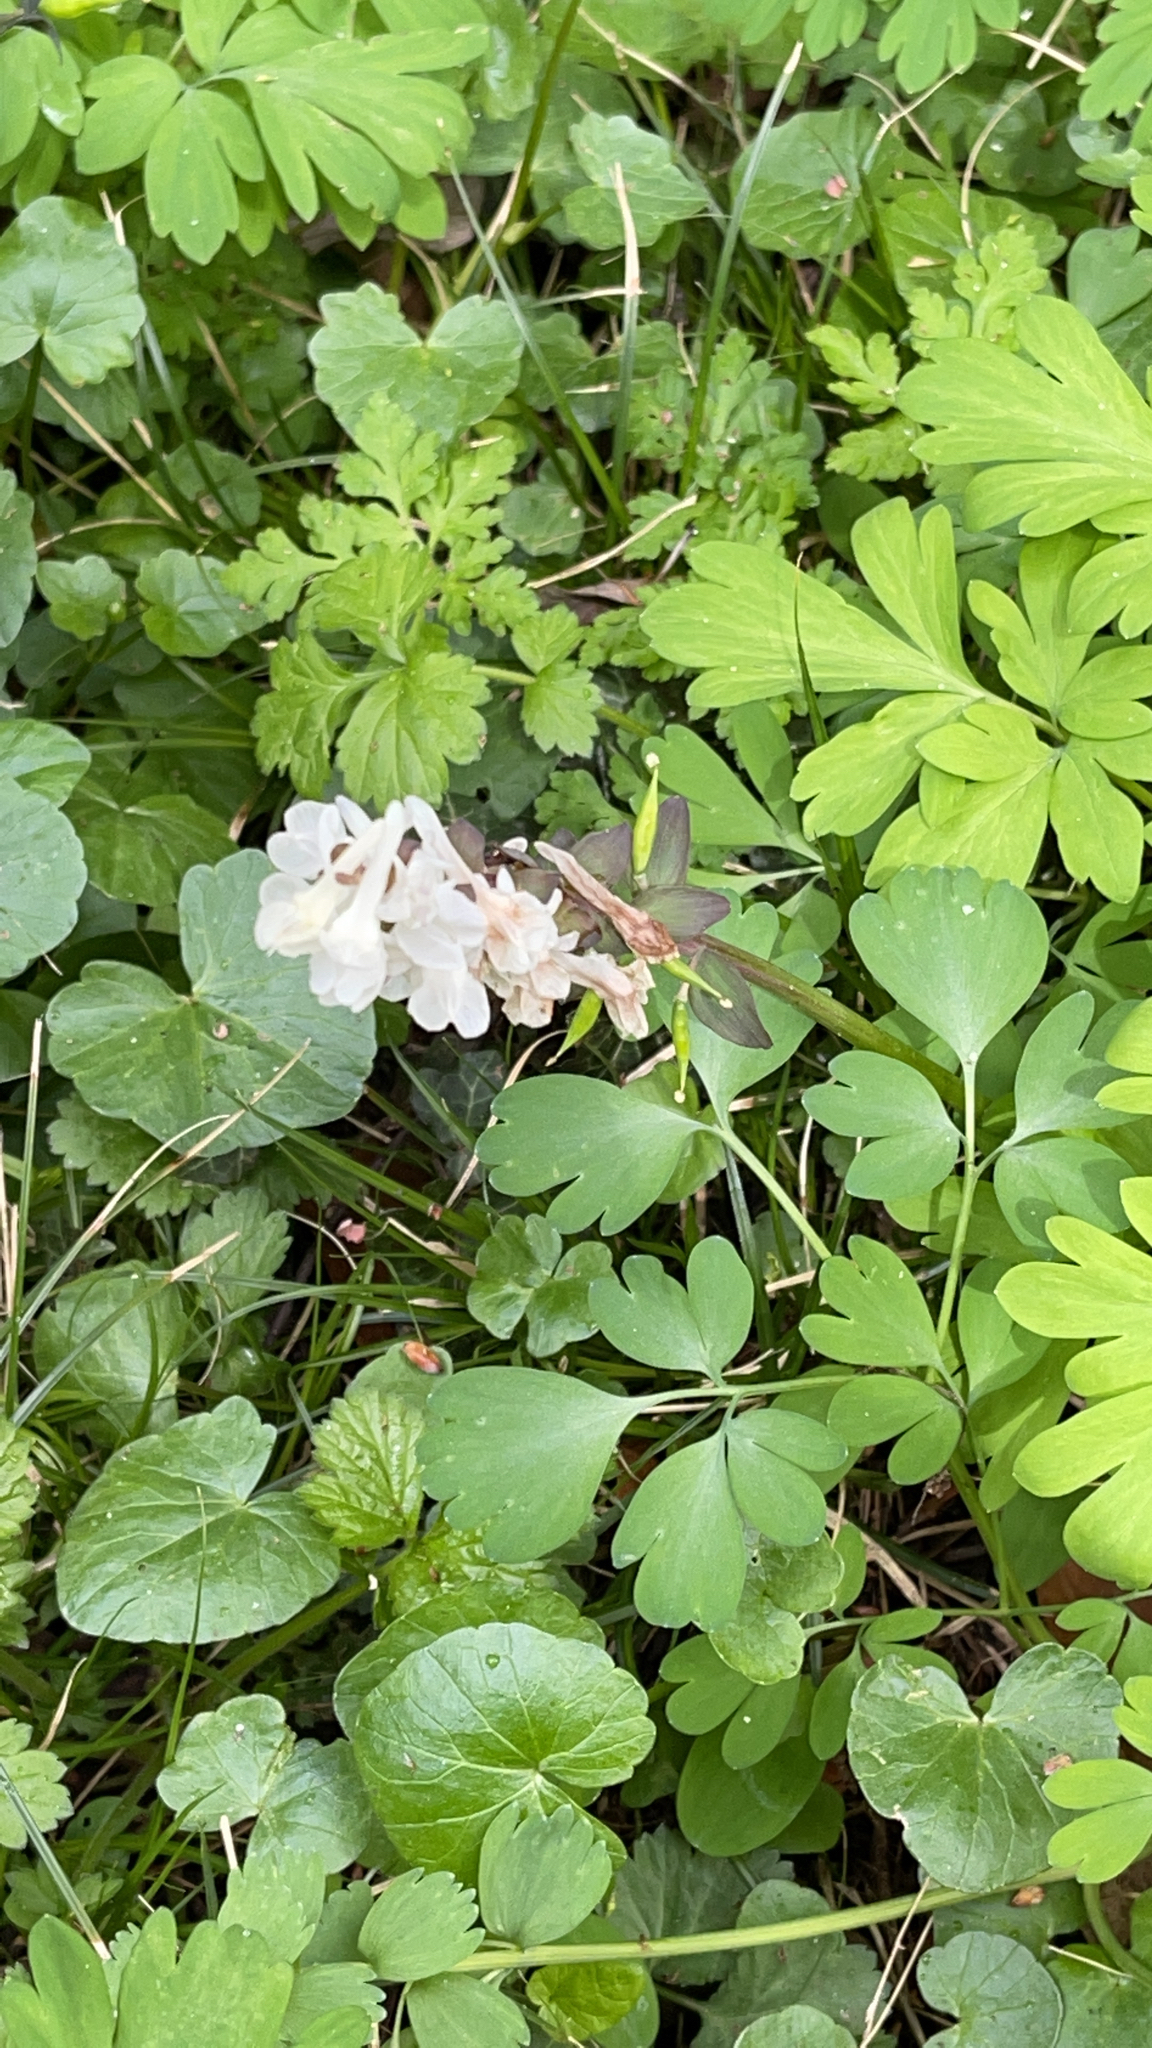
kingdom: Plantae
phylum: Tracheophyta
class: Magnoliopsida
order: Ranunculales
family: Papaveraceae
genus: Corydalis
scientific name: Corydalis cava
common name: Hollowroot
